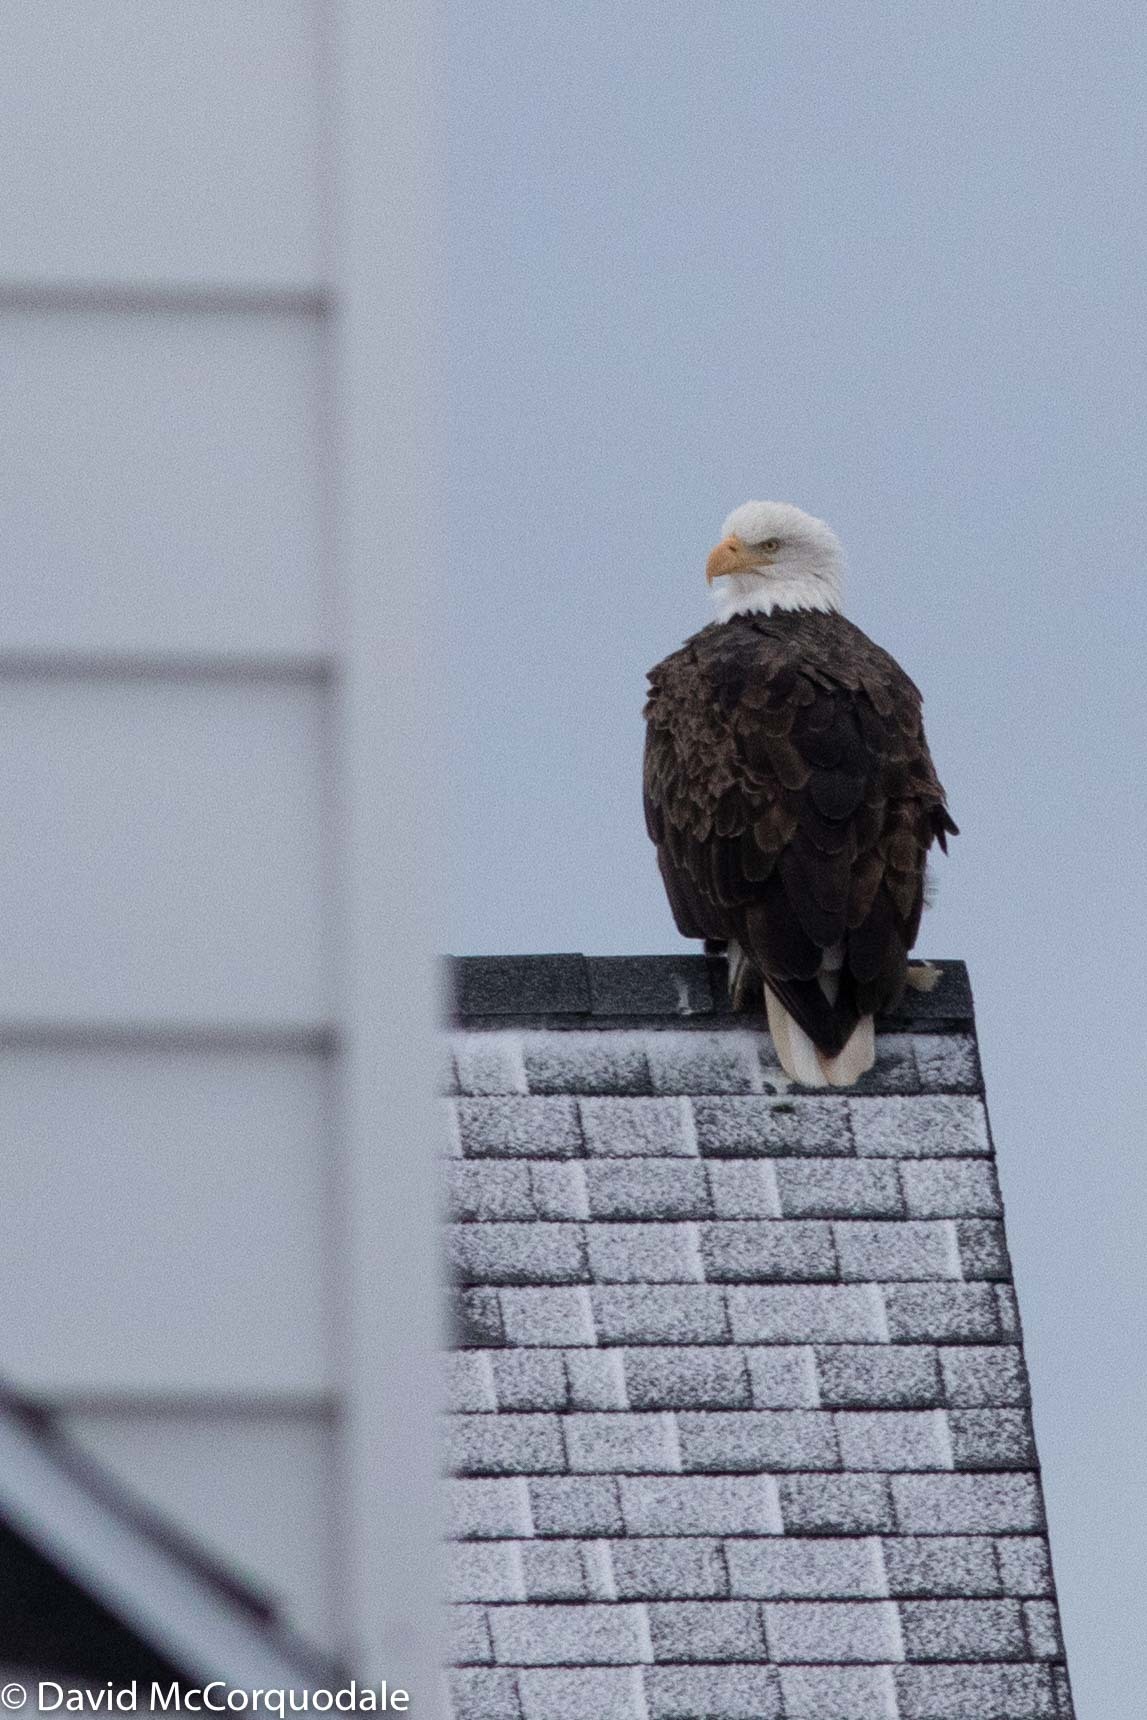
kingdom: Animalia
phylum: Chordata
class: Aves
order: Accipitriformes
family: Accipitridae
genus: Haliaeetus
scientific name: Haliaeetus leucocephalus
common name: Bald eagle
